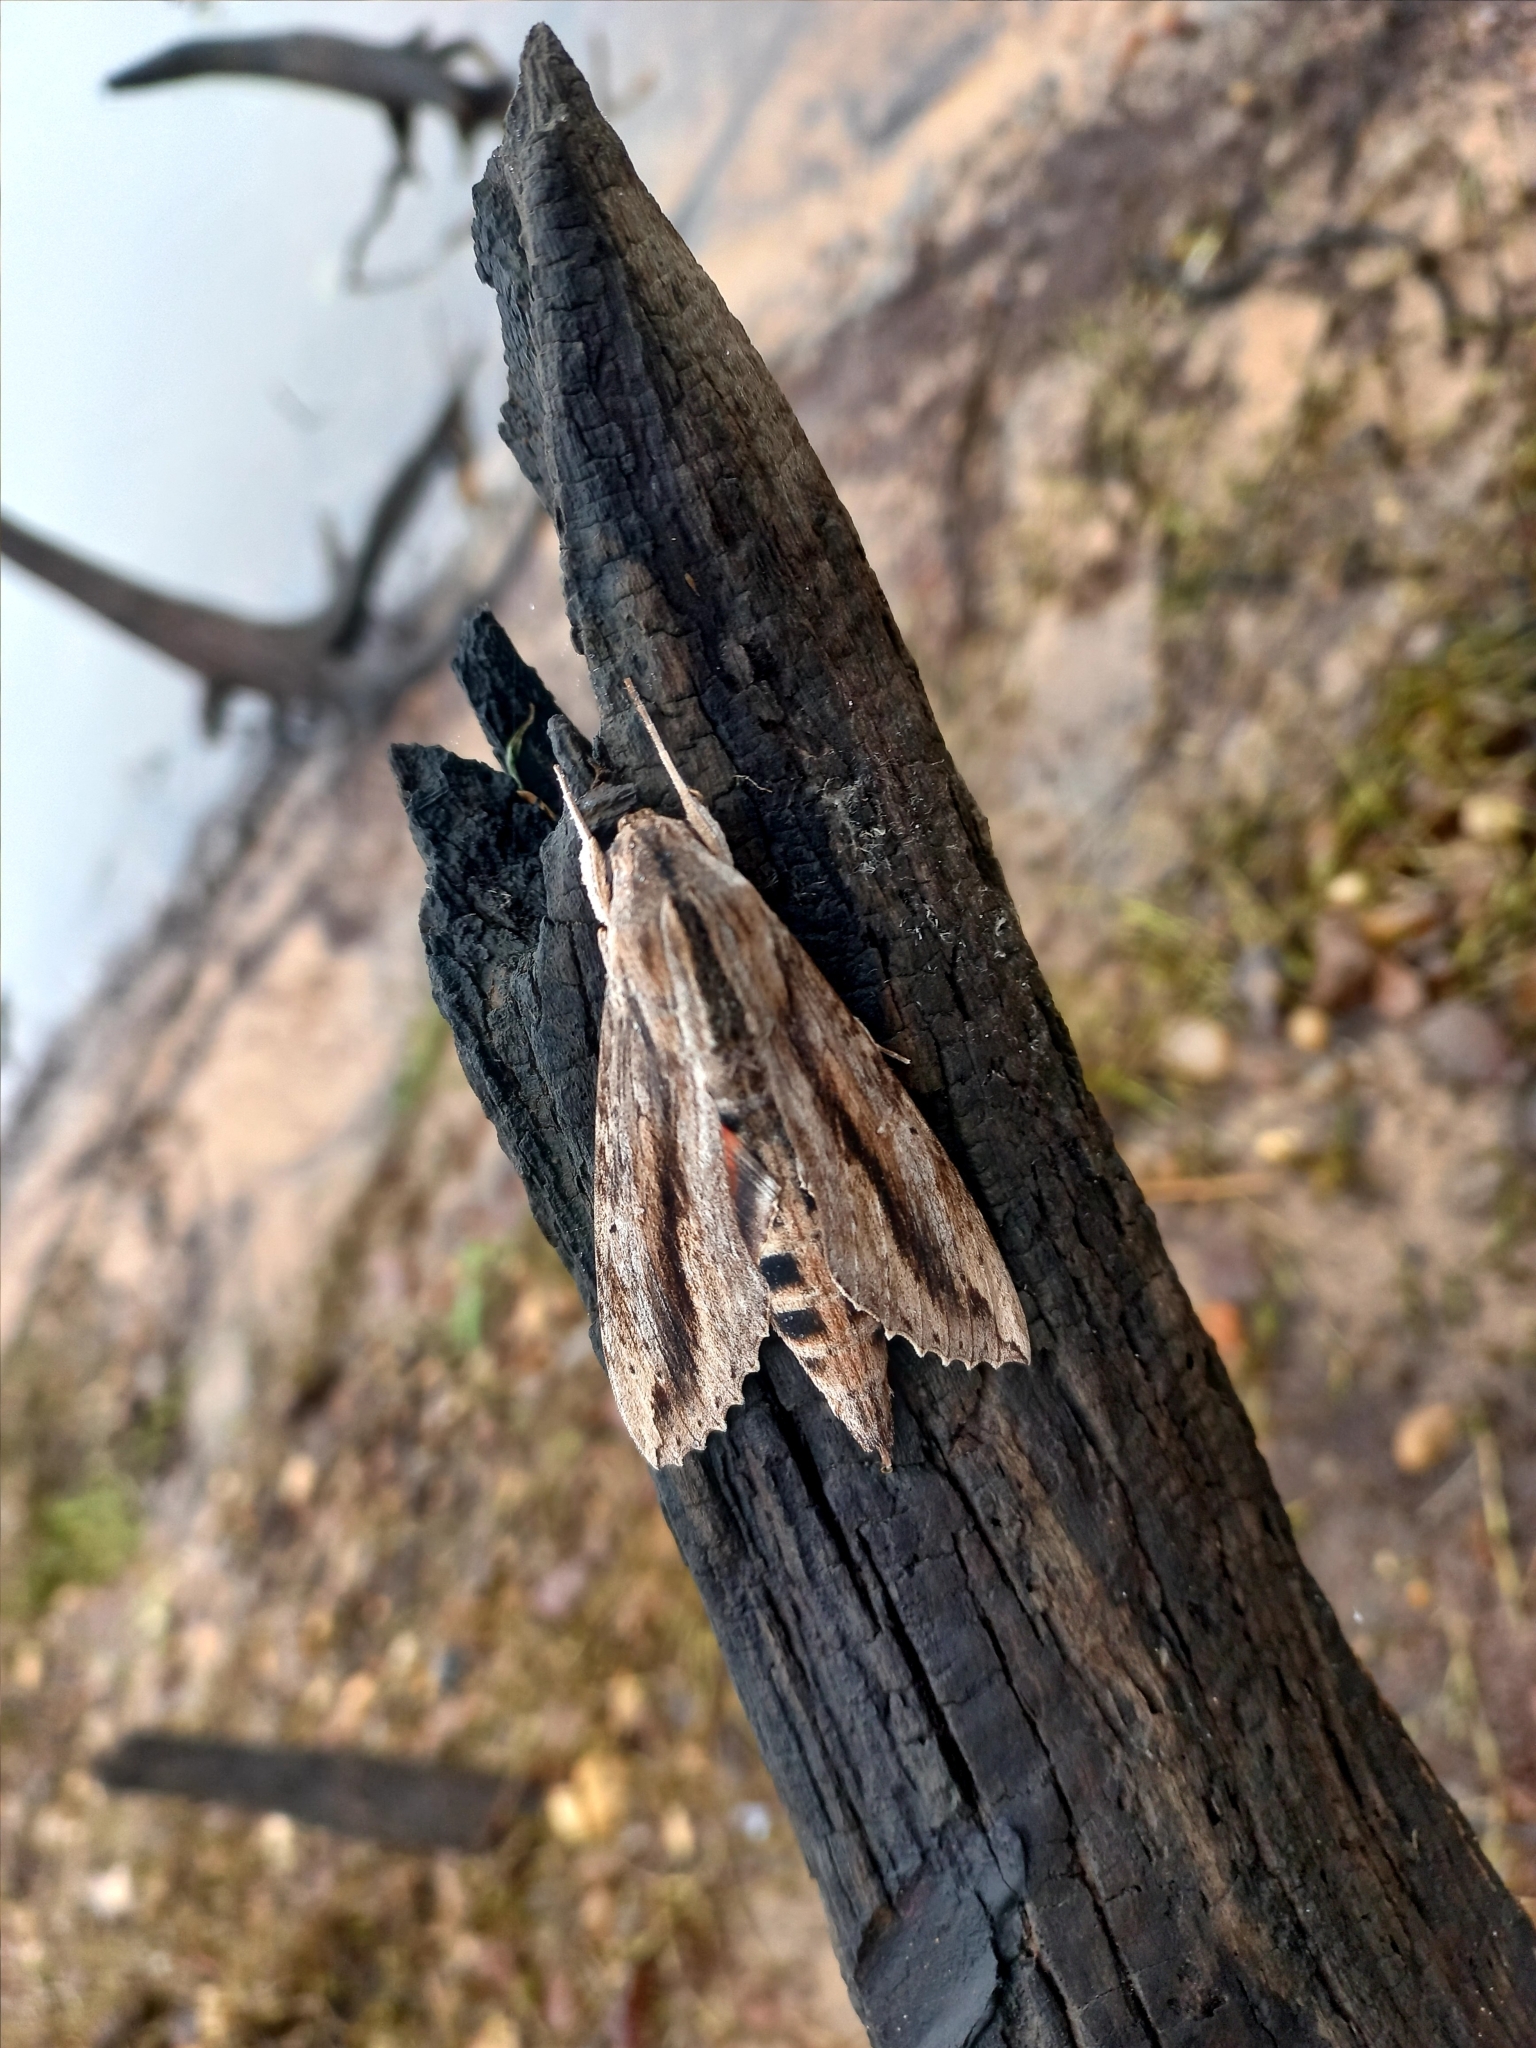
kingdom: Animalia
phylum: Arthropoda
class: Insecta
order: Lepidoptera
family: Sphingidae
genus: Erinnyis
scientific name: Erinnyis ello
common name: Ello sphinx
